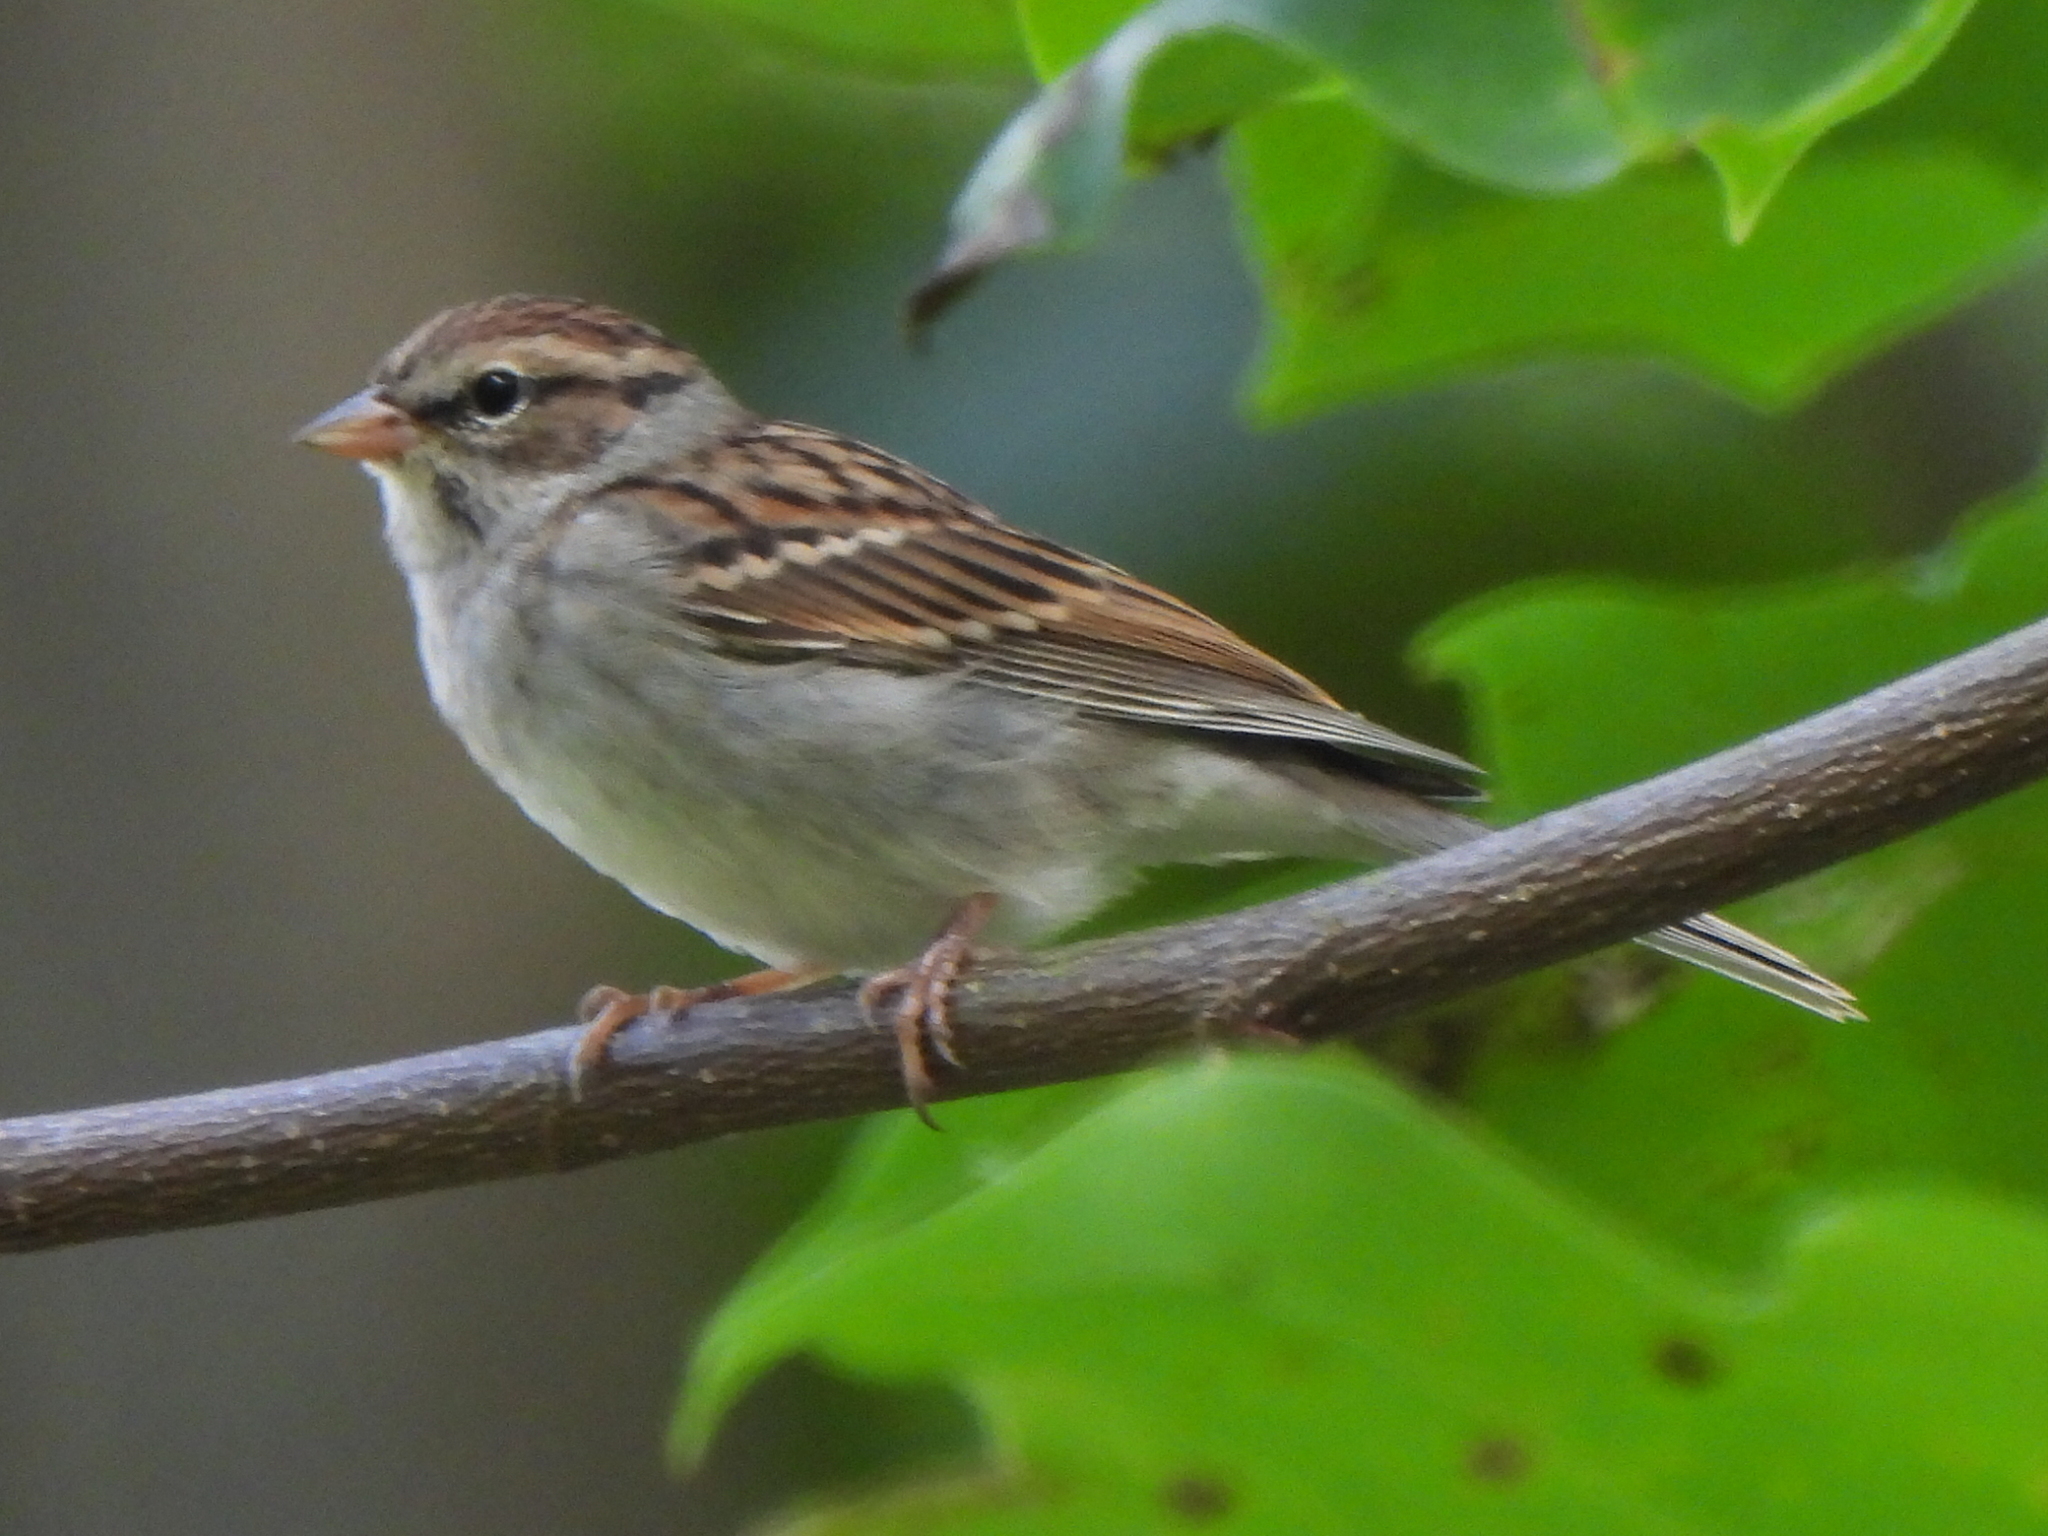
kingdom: Animalia
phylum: Chordata
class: Aves
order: Passeriformes
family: Passerellidae
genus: Spizella
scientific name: Spizella passerina
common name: Chipping sparrow
